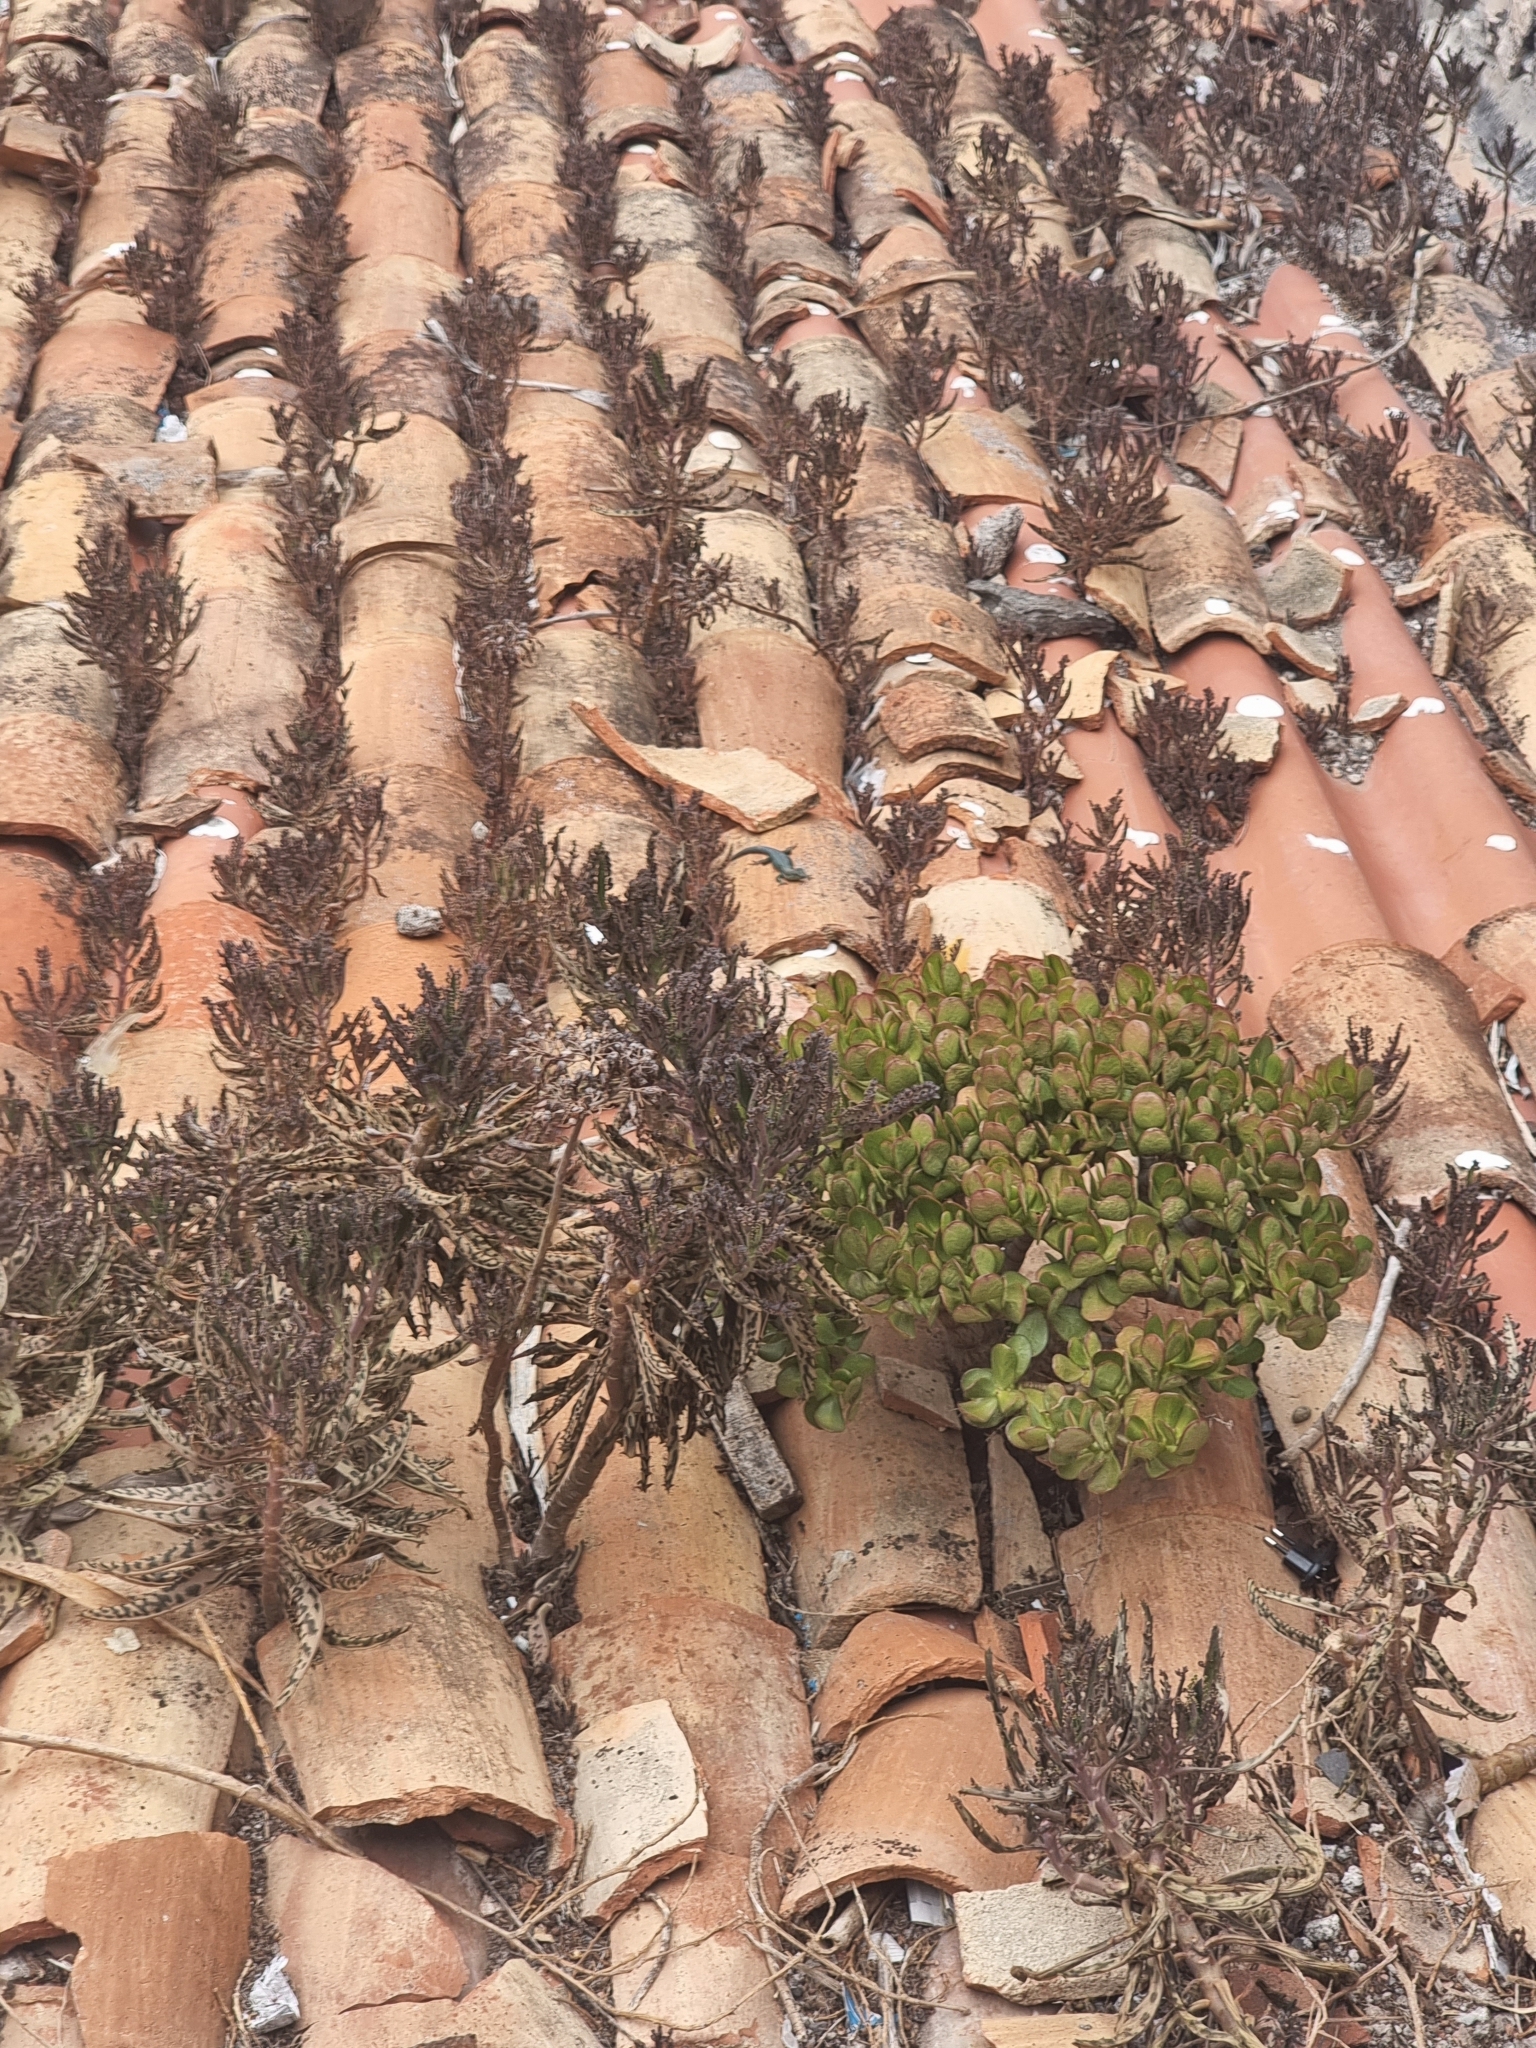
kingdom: Plantae
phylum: Tracheophyta
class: Magnoliopsida
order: Saxifragales
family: Crassulaceae
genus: Kalanchoe
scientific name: Kalanchoe houghtonii
